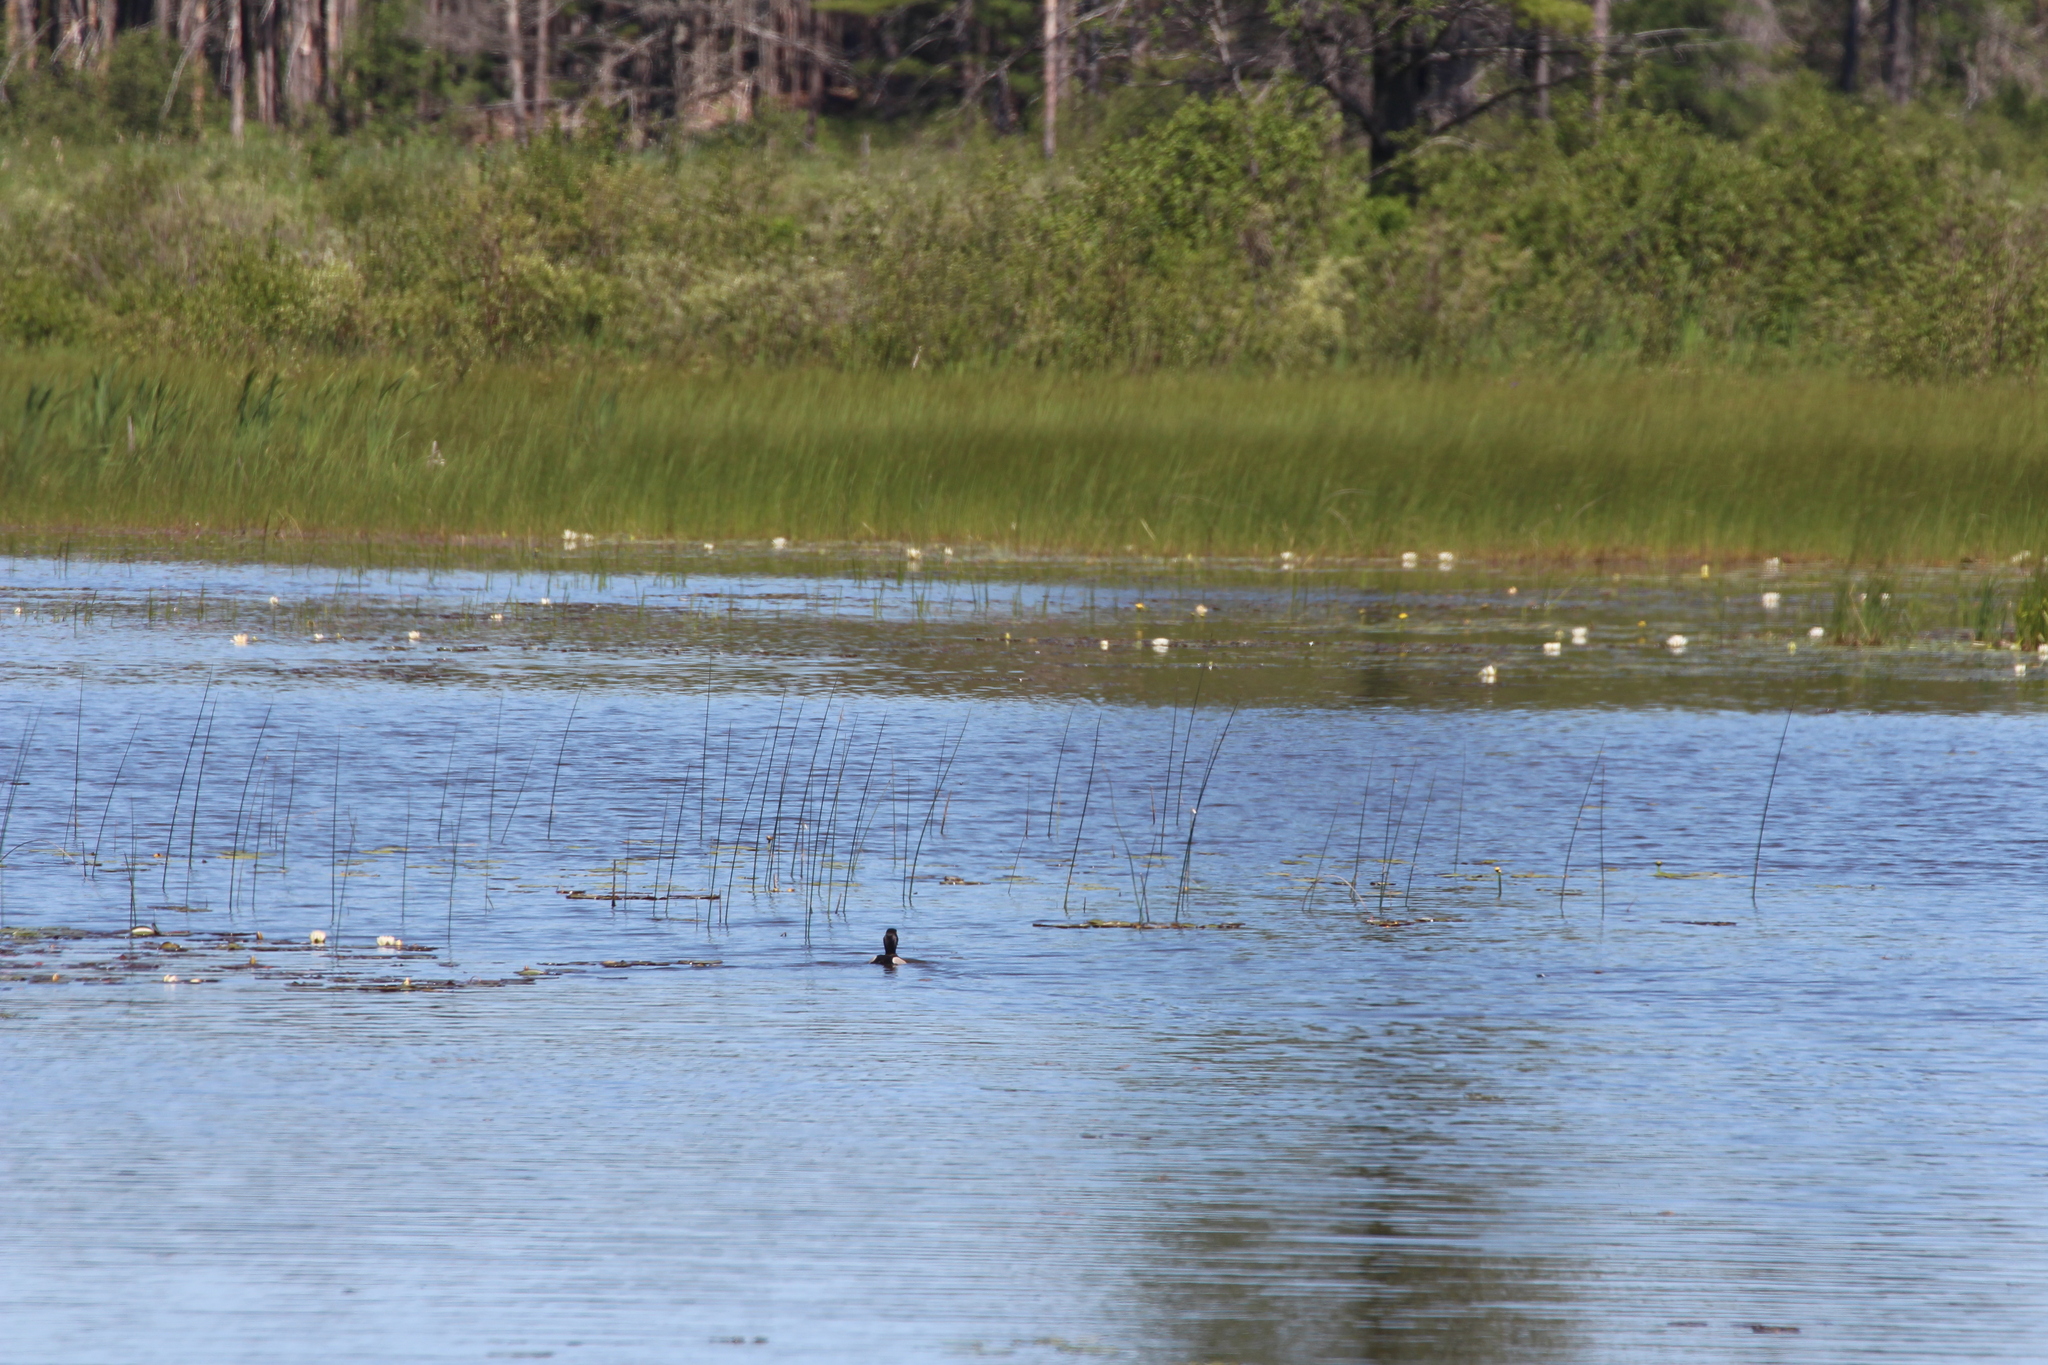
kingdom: Animalia
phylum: Chordata
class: Aves
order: Anseriformes
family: Anatidae
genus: Aythya
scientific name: Aythya collaris
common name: Ring-necked duck
